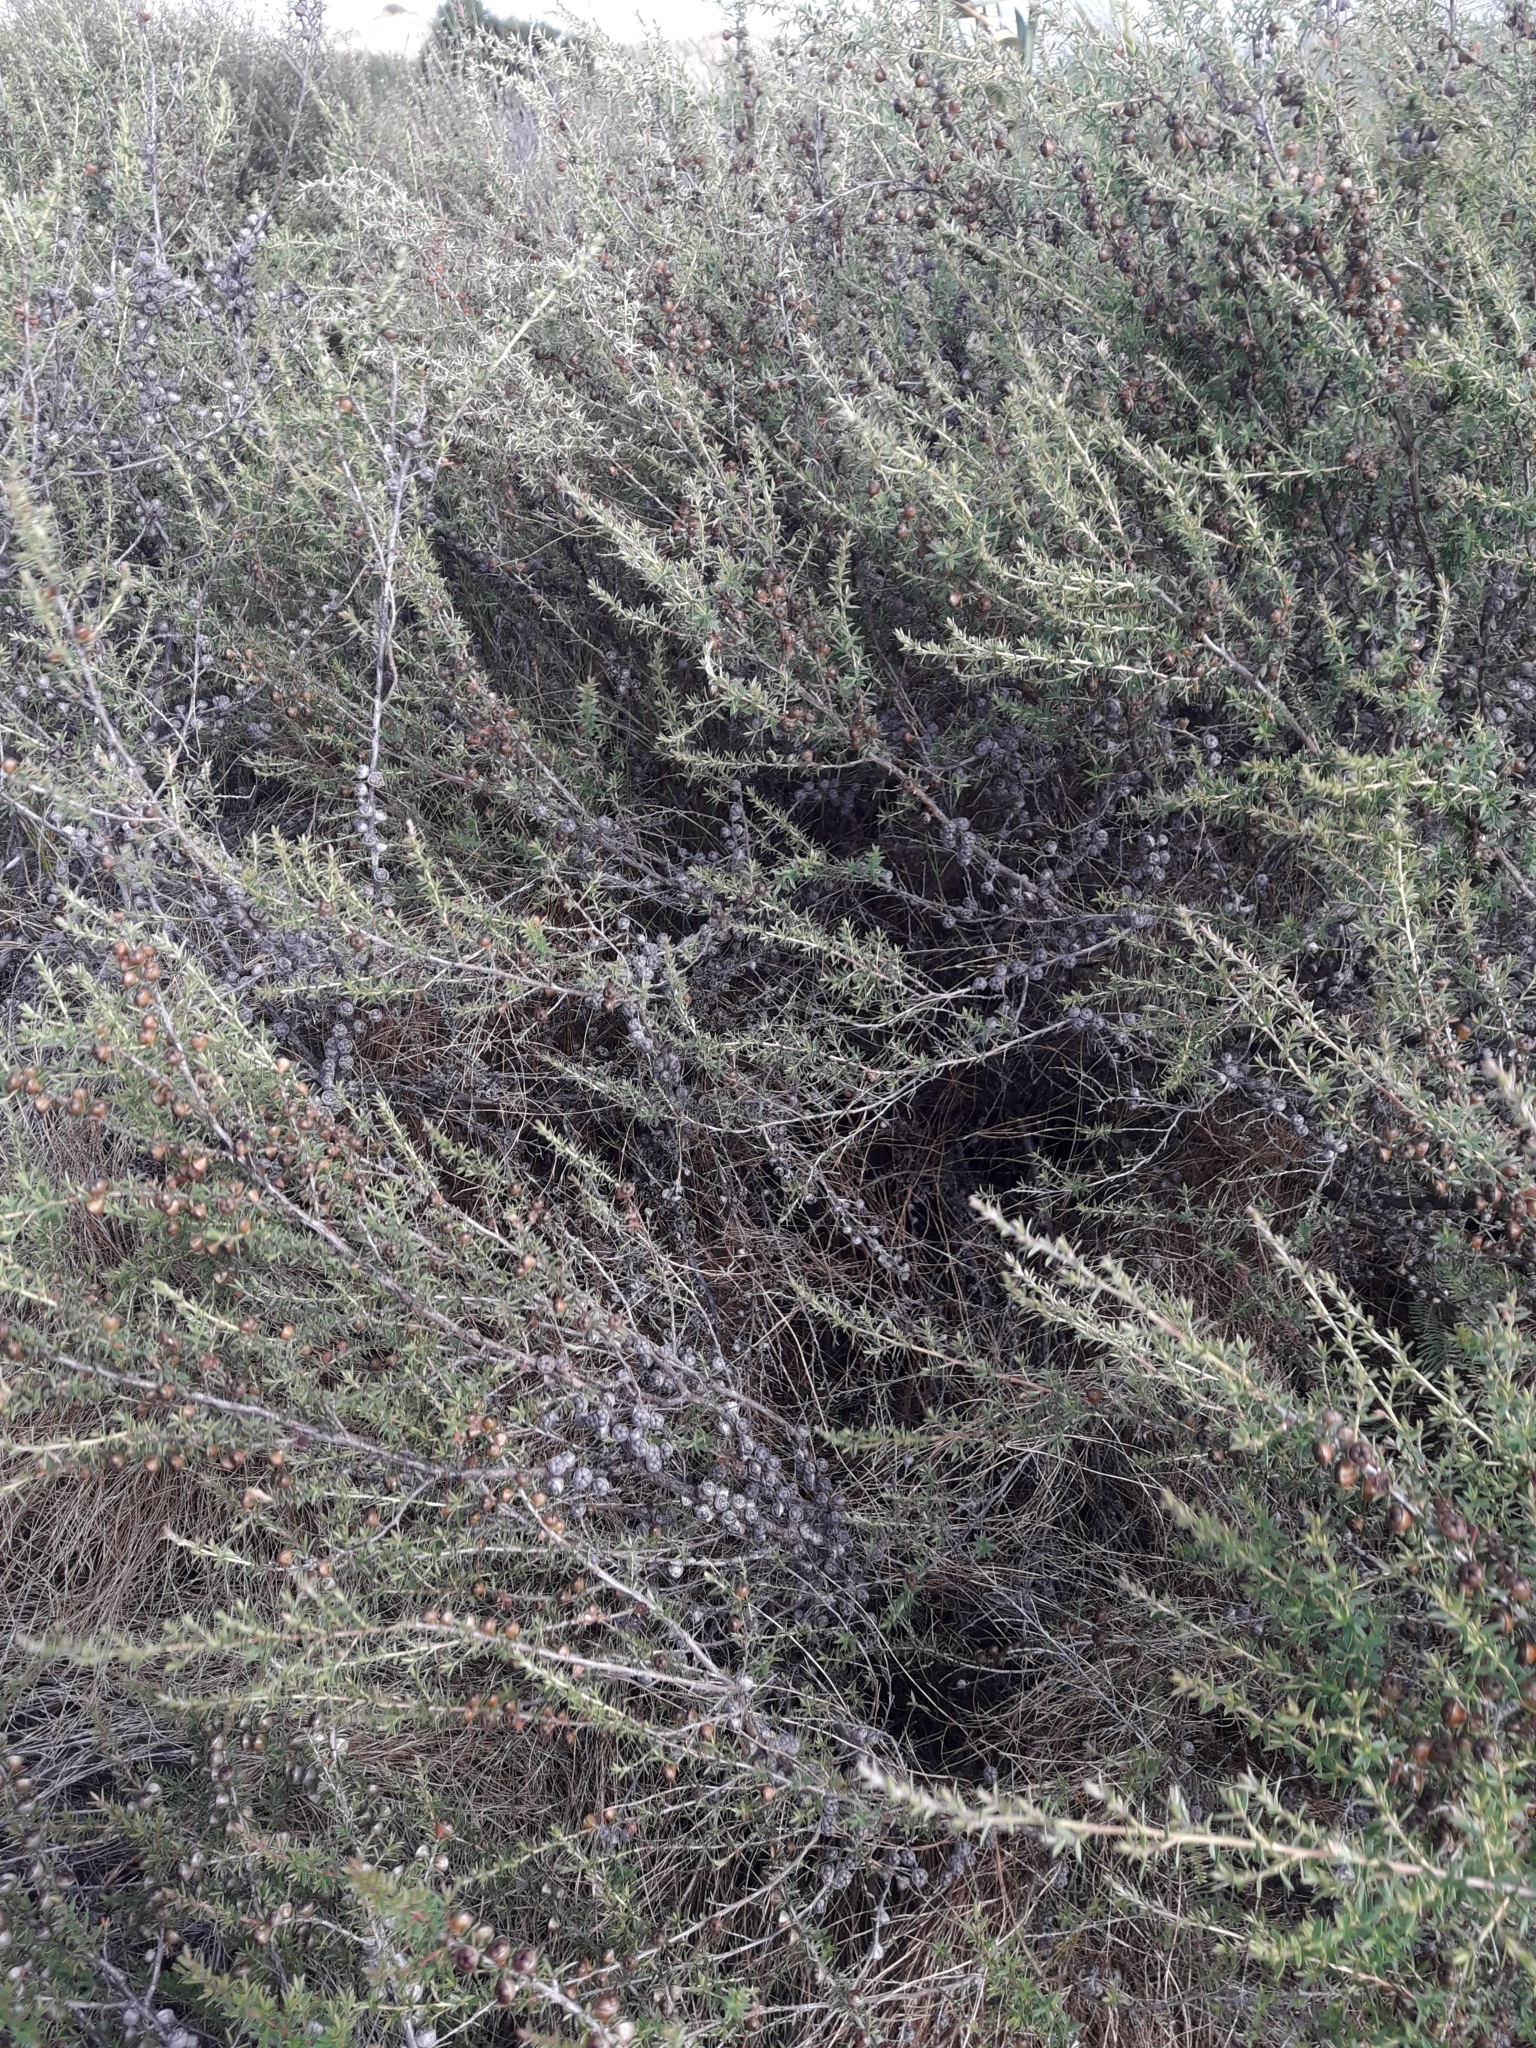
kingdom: Plantae
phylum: Tracheophyta
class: Magnoliopsida
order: Myrtales
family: Myrtaceae
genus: Leptospermum
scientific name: Leptospermum scoparium
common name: Broom tea-tree
